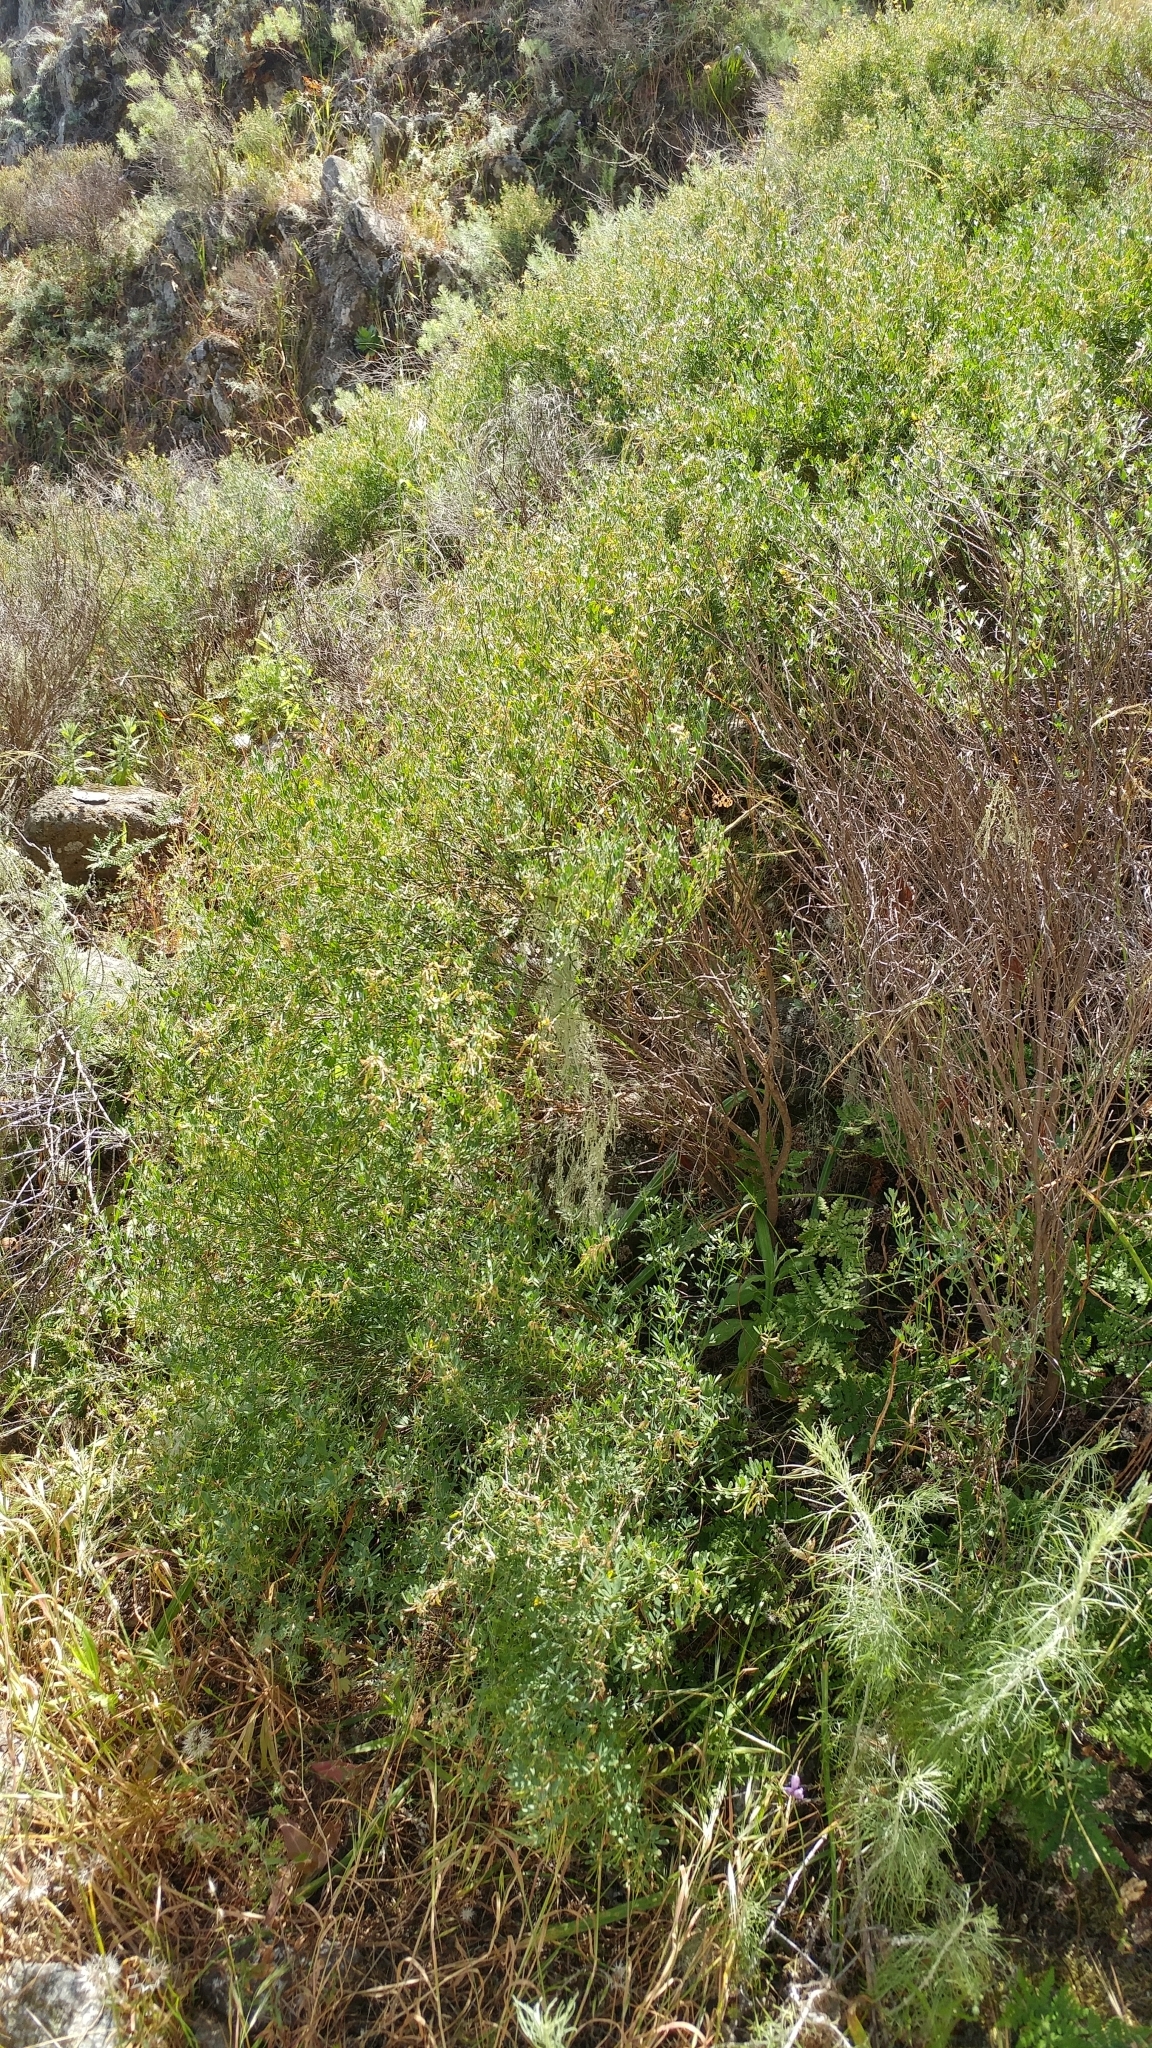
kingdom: Plantae
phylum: Tracheophyta
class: Magnoliopsida
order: Fabales
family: Fabaceae
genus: Acmispon
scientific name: Acmispon dendroideus
